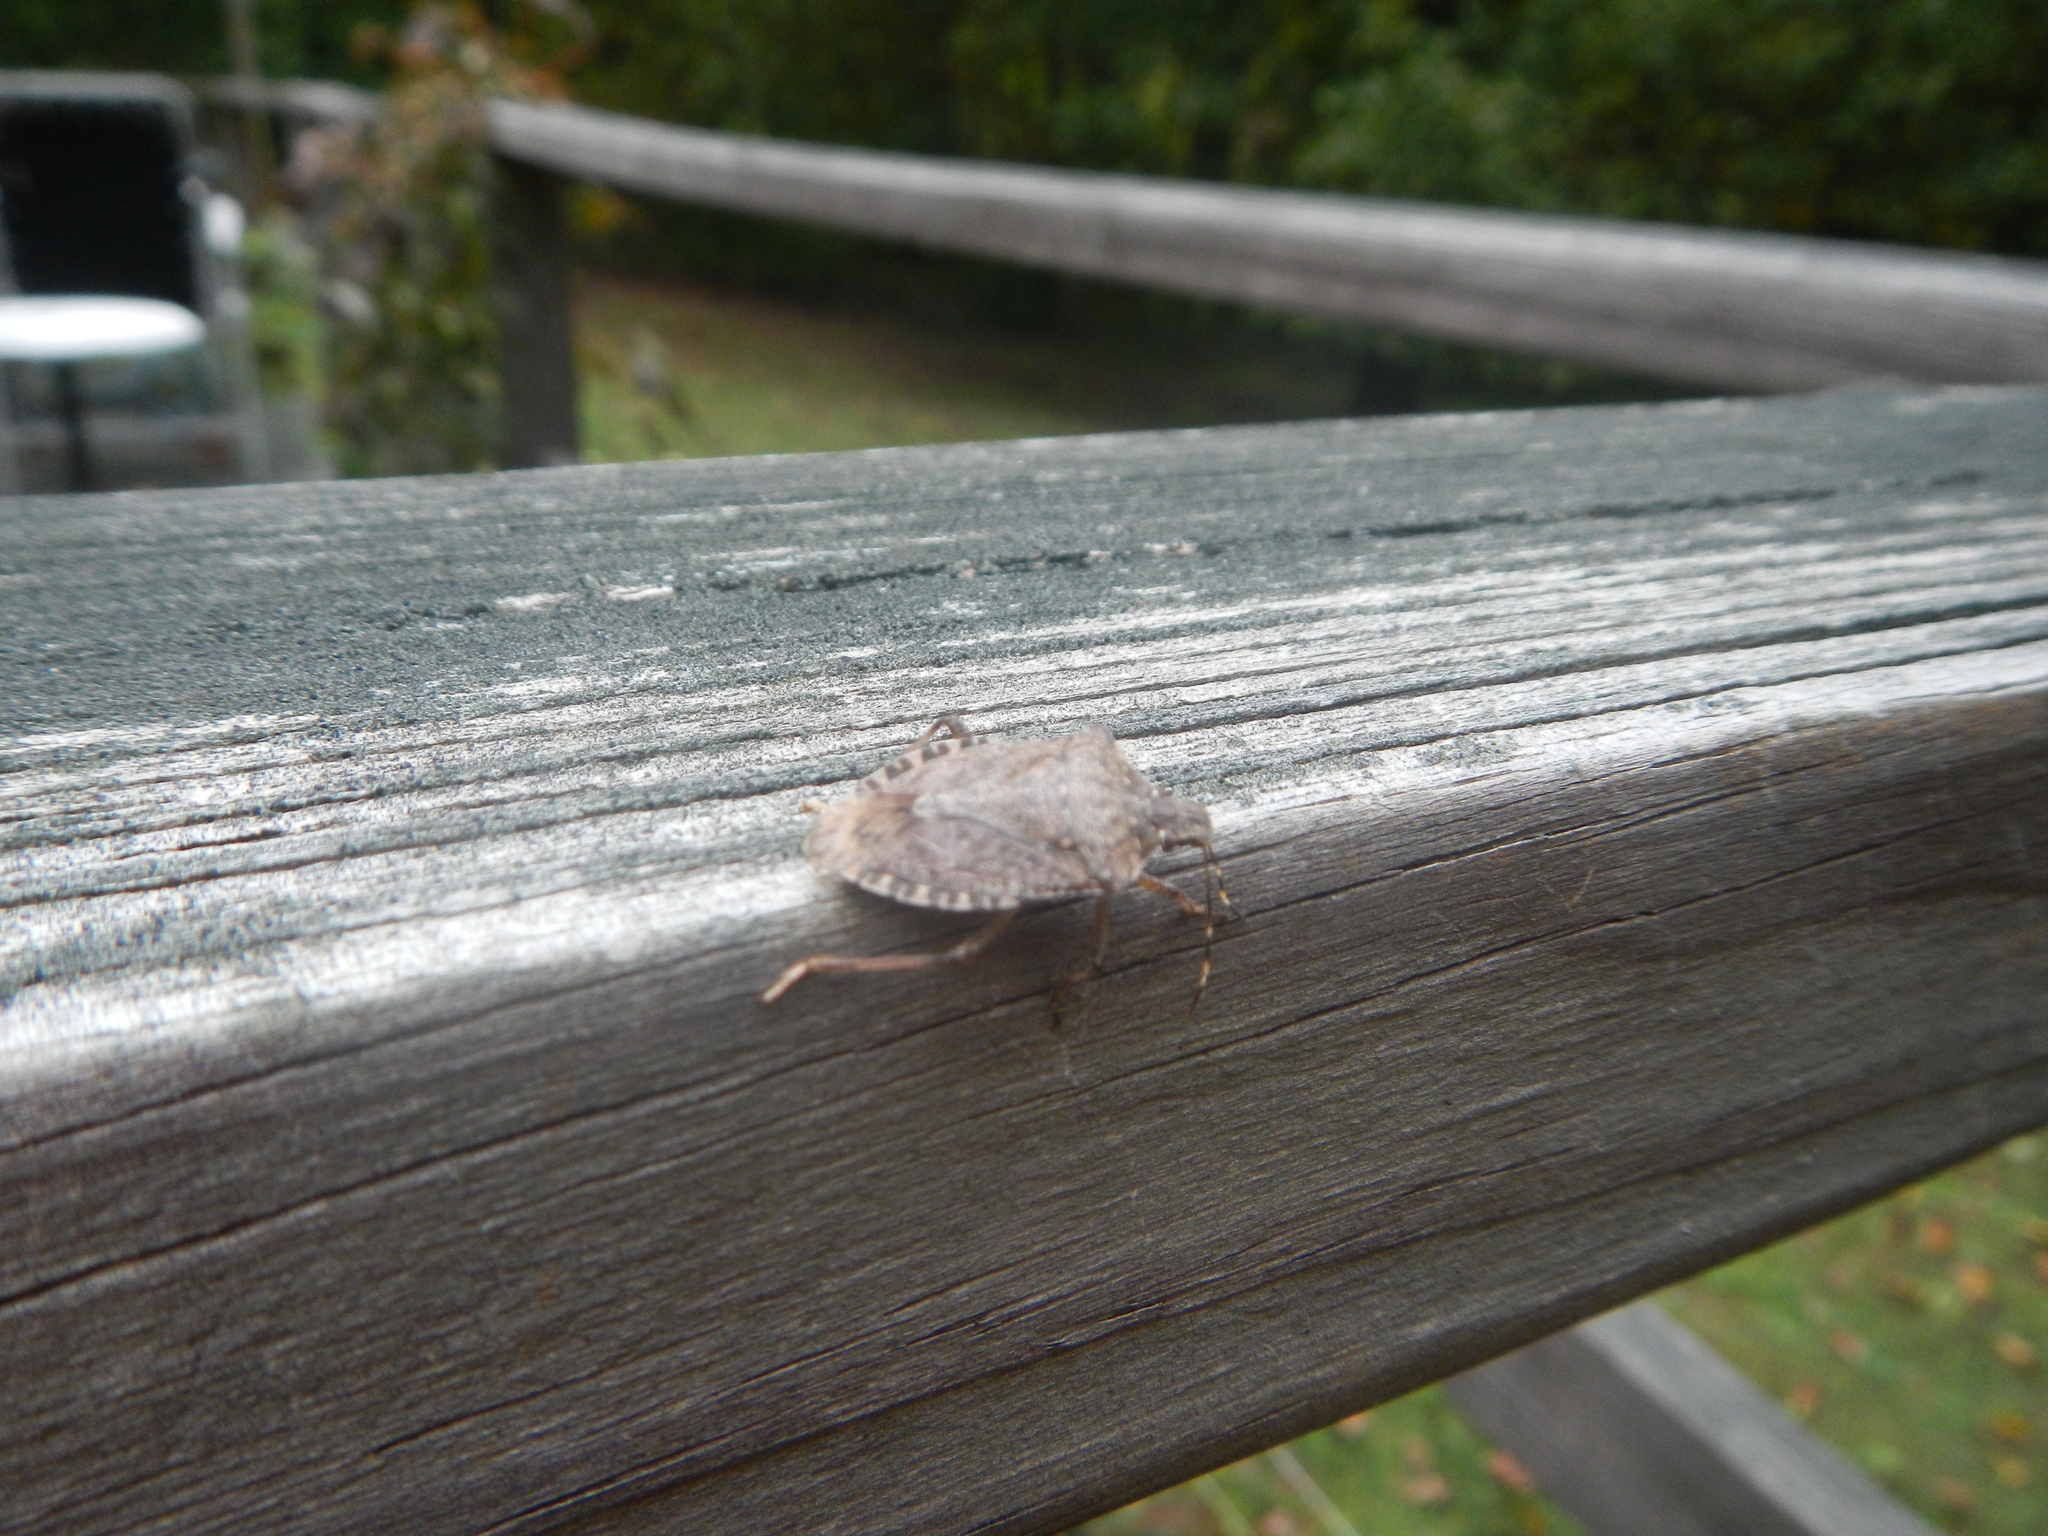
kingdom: Animalia
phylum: Arthropoda
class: Insecta
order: Hemiptera
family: Pentatomidae
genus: Halyomorpha
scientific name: Halyomorpha halys
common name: Brown marmorated stink bug
